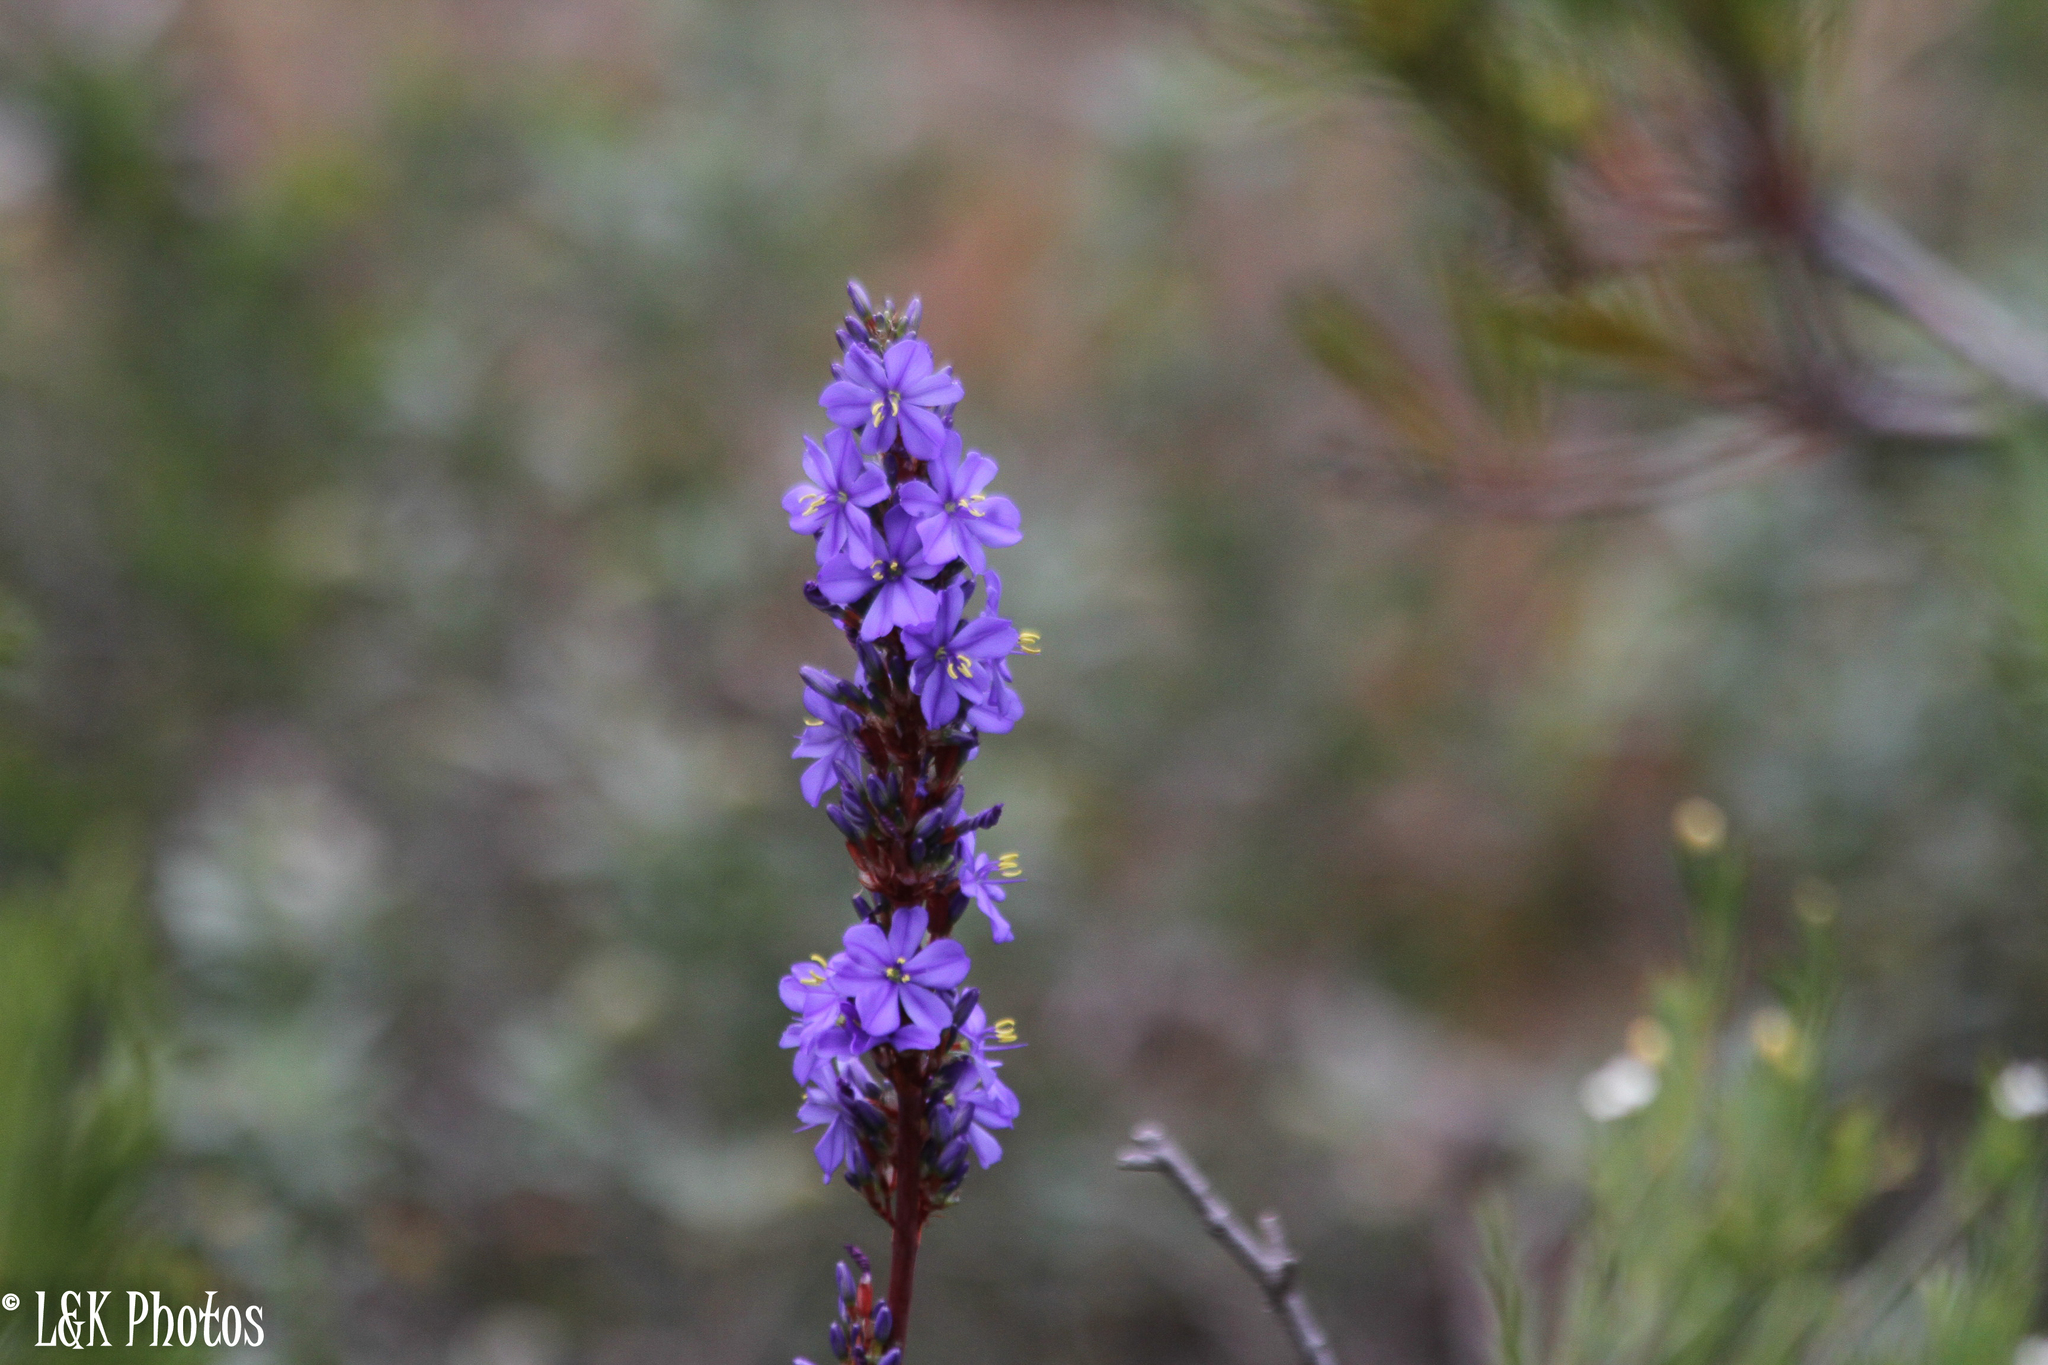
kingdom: Plantae
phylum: Tracheophyta
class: Liliopsida
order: Asparagales
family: Iridaceae
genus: Aristea
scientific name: Aristea capitata
